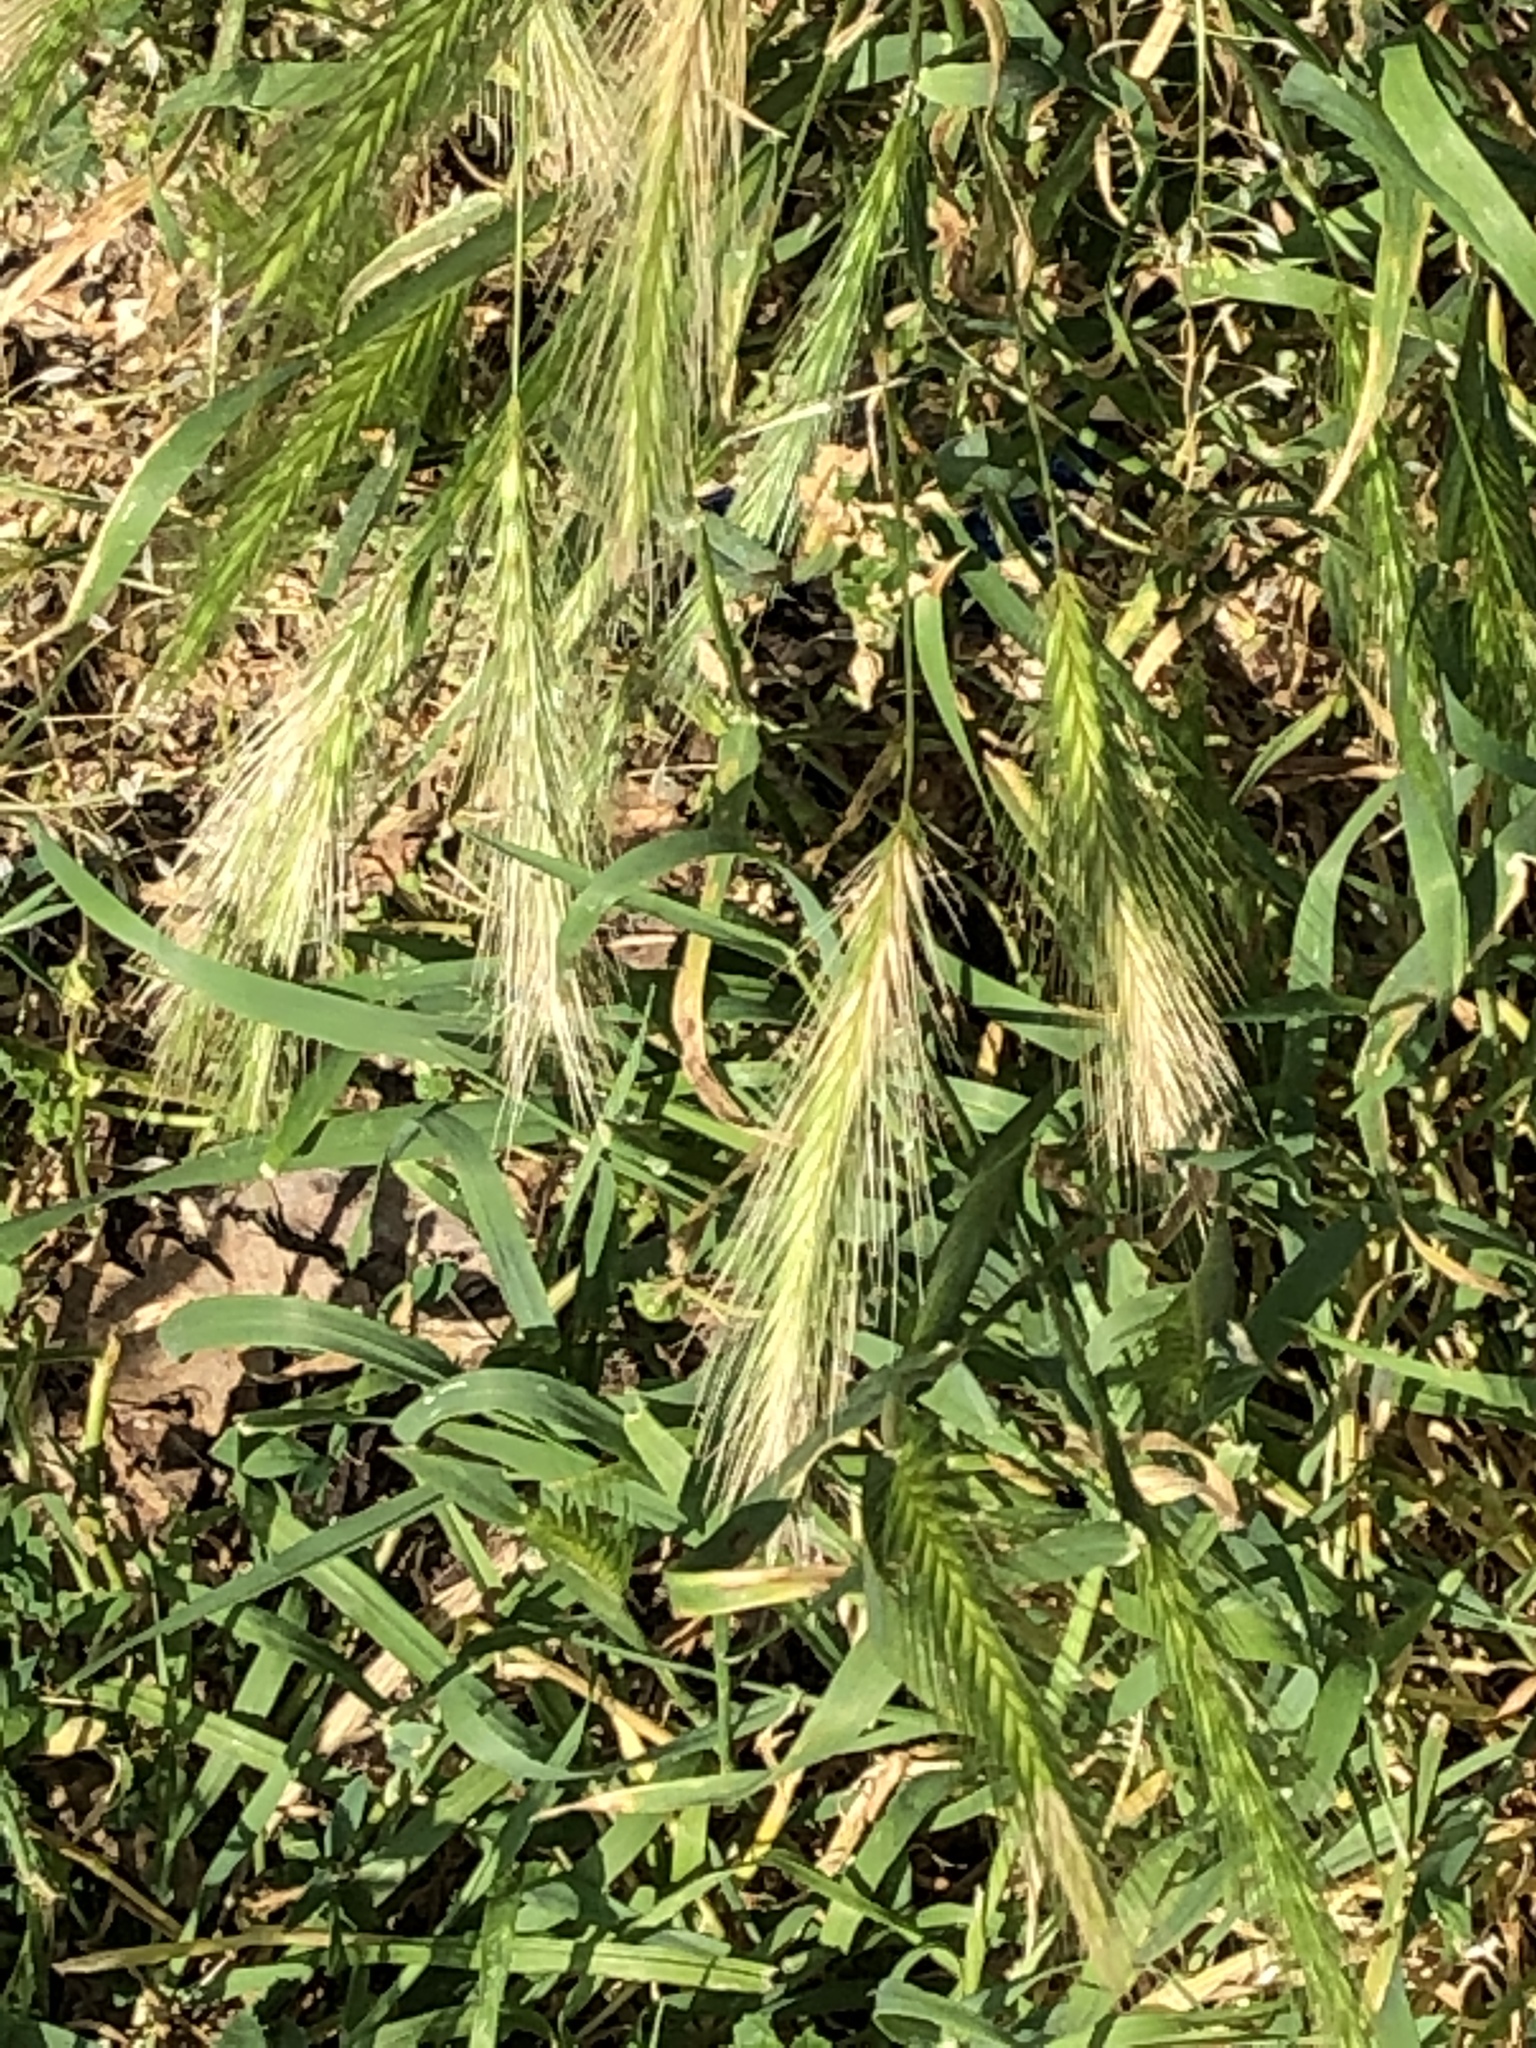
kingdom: Plantae
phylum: Tracheophyta
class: Liliopsida
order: Poales
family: Poaceae
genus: Hordeum
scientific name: Hordeum murinum
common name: Wall barley
